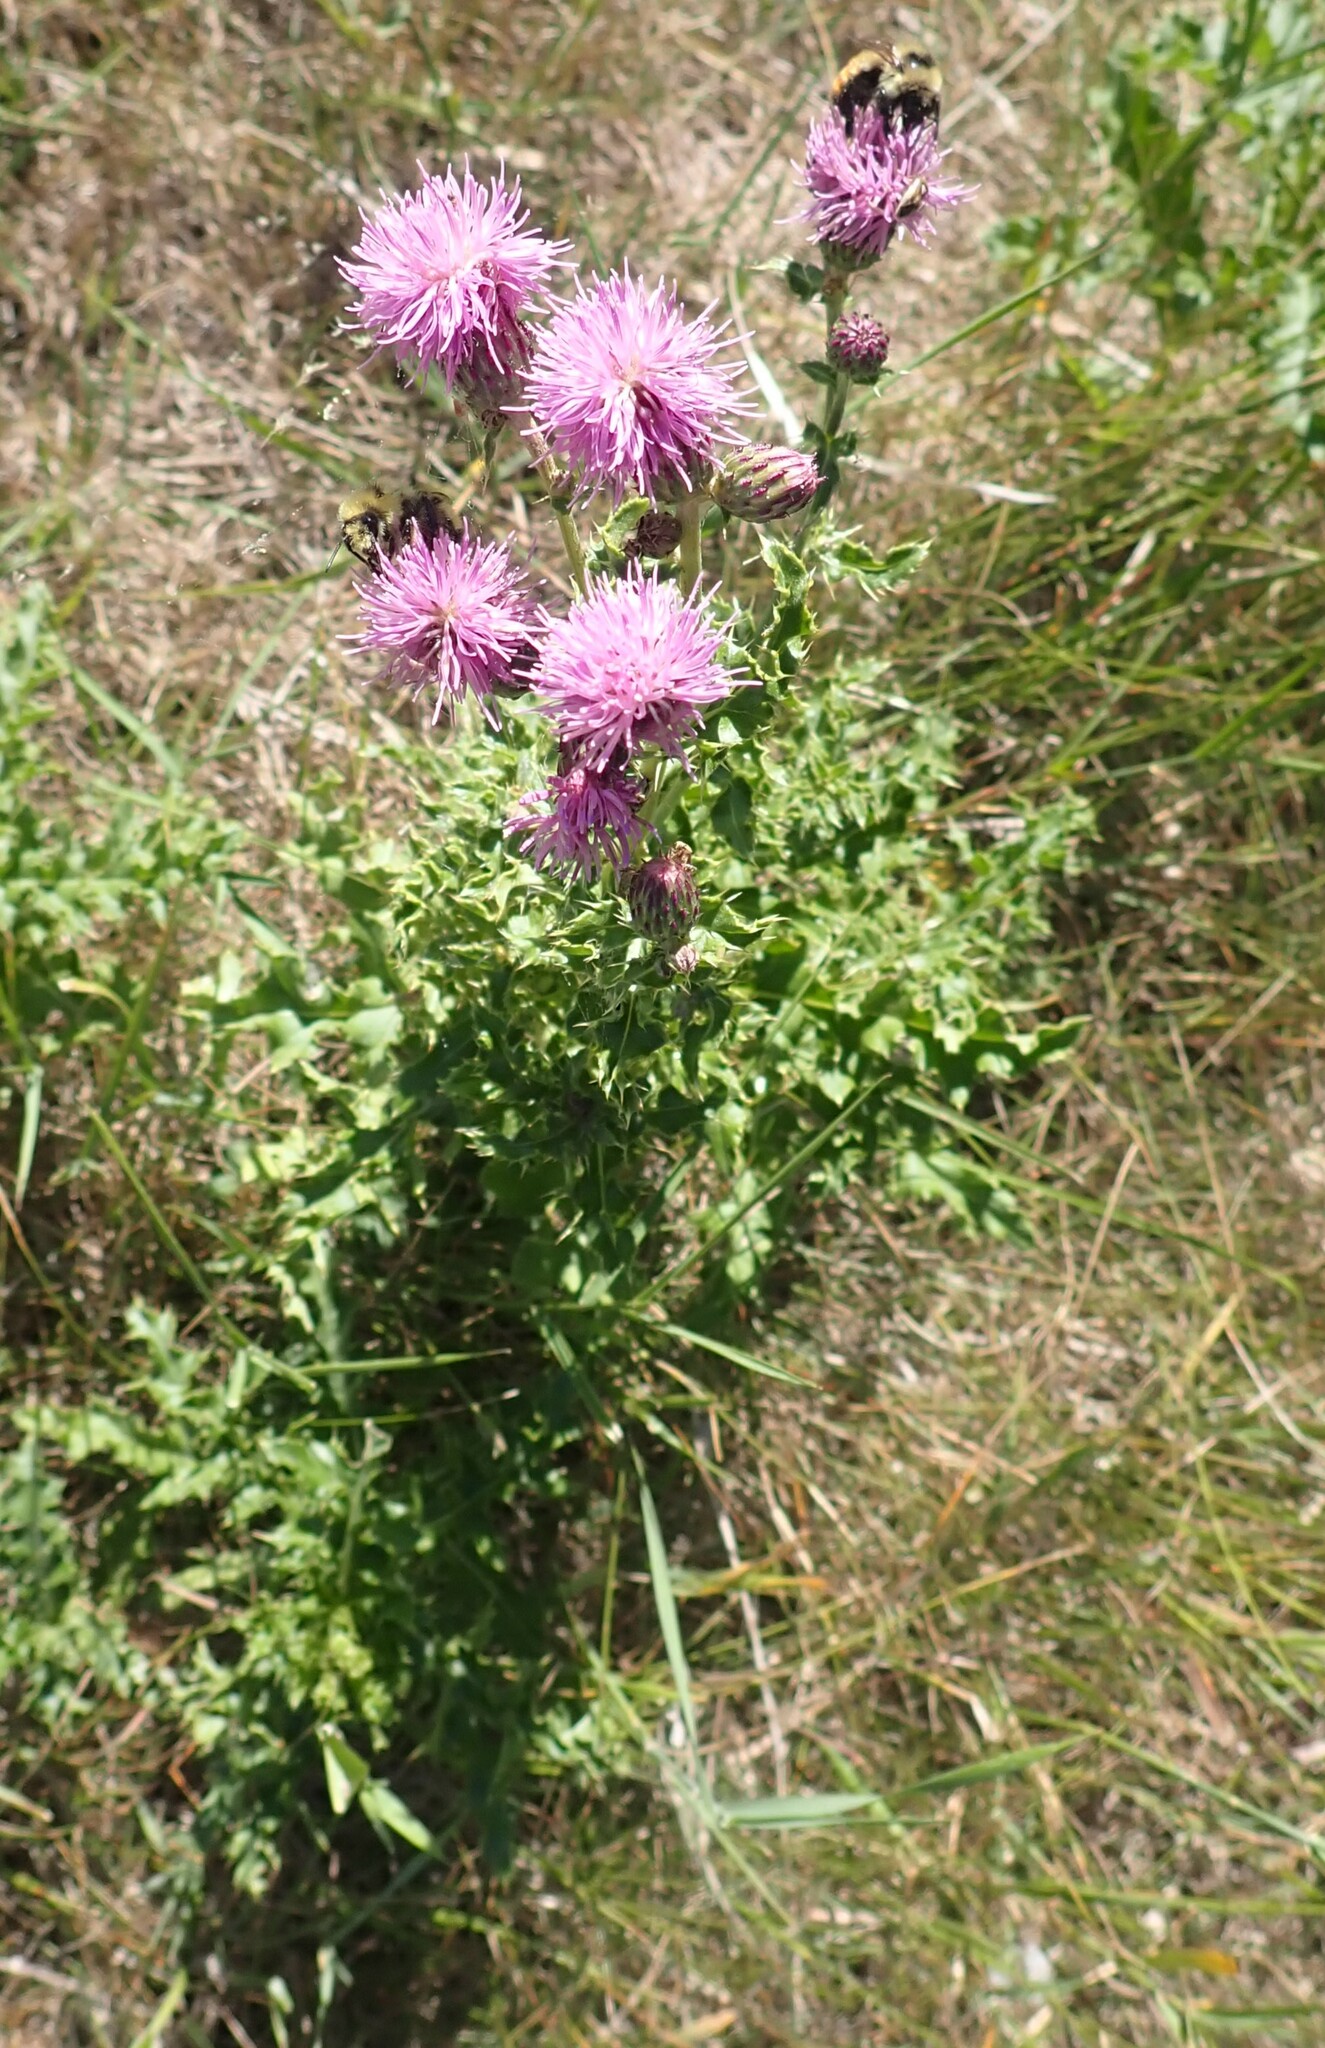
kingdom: Plantae
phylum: Tracheophyta
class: Magnoliopsida
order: Asterales
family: Asteraceae
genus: Cirsium
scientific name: Cirsium arvense
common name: Creeping thistle
